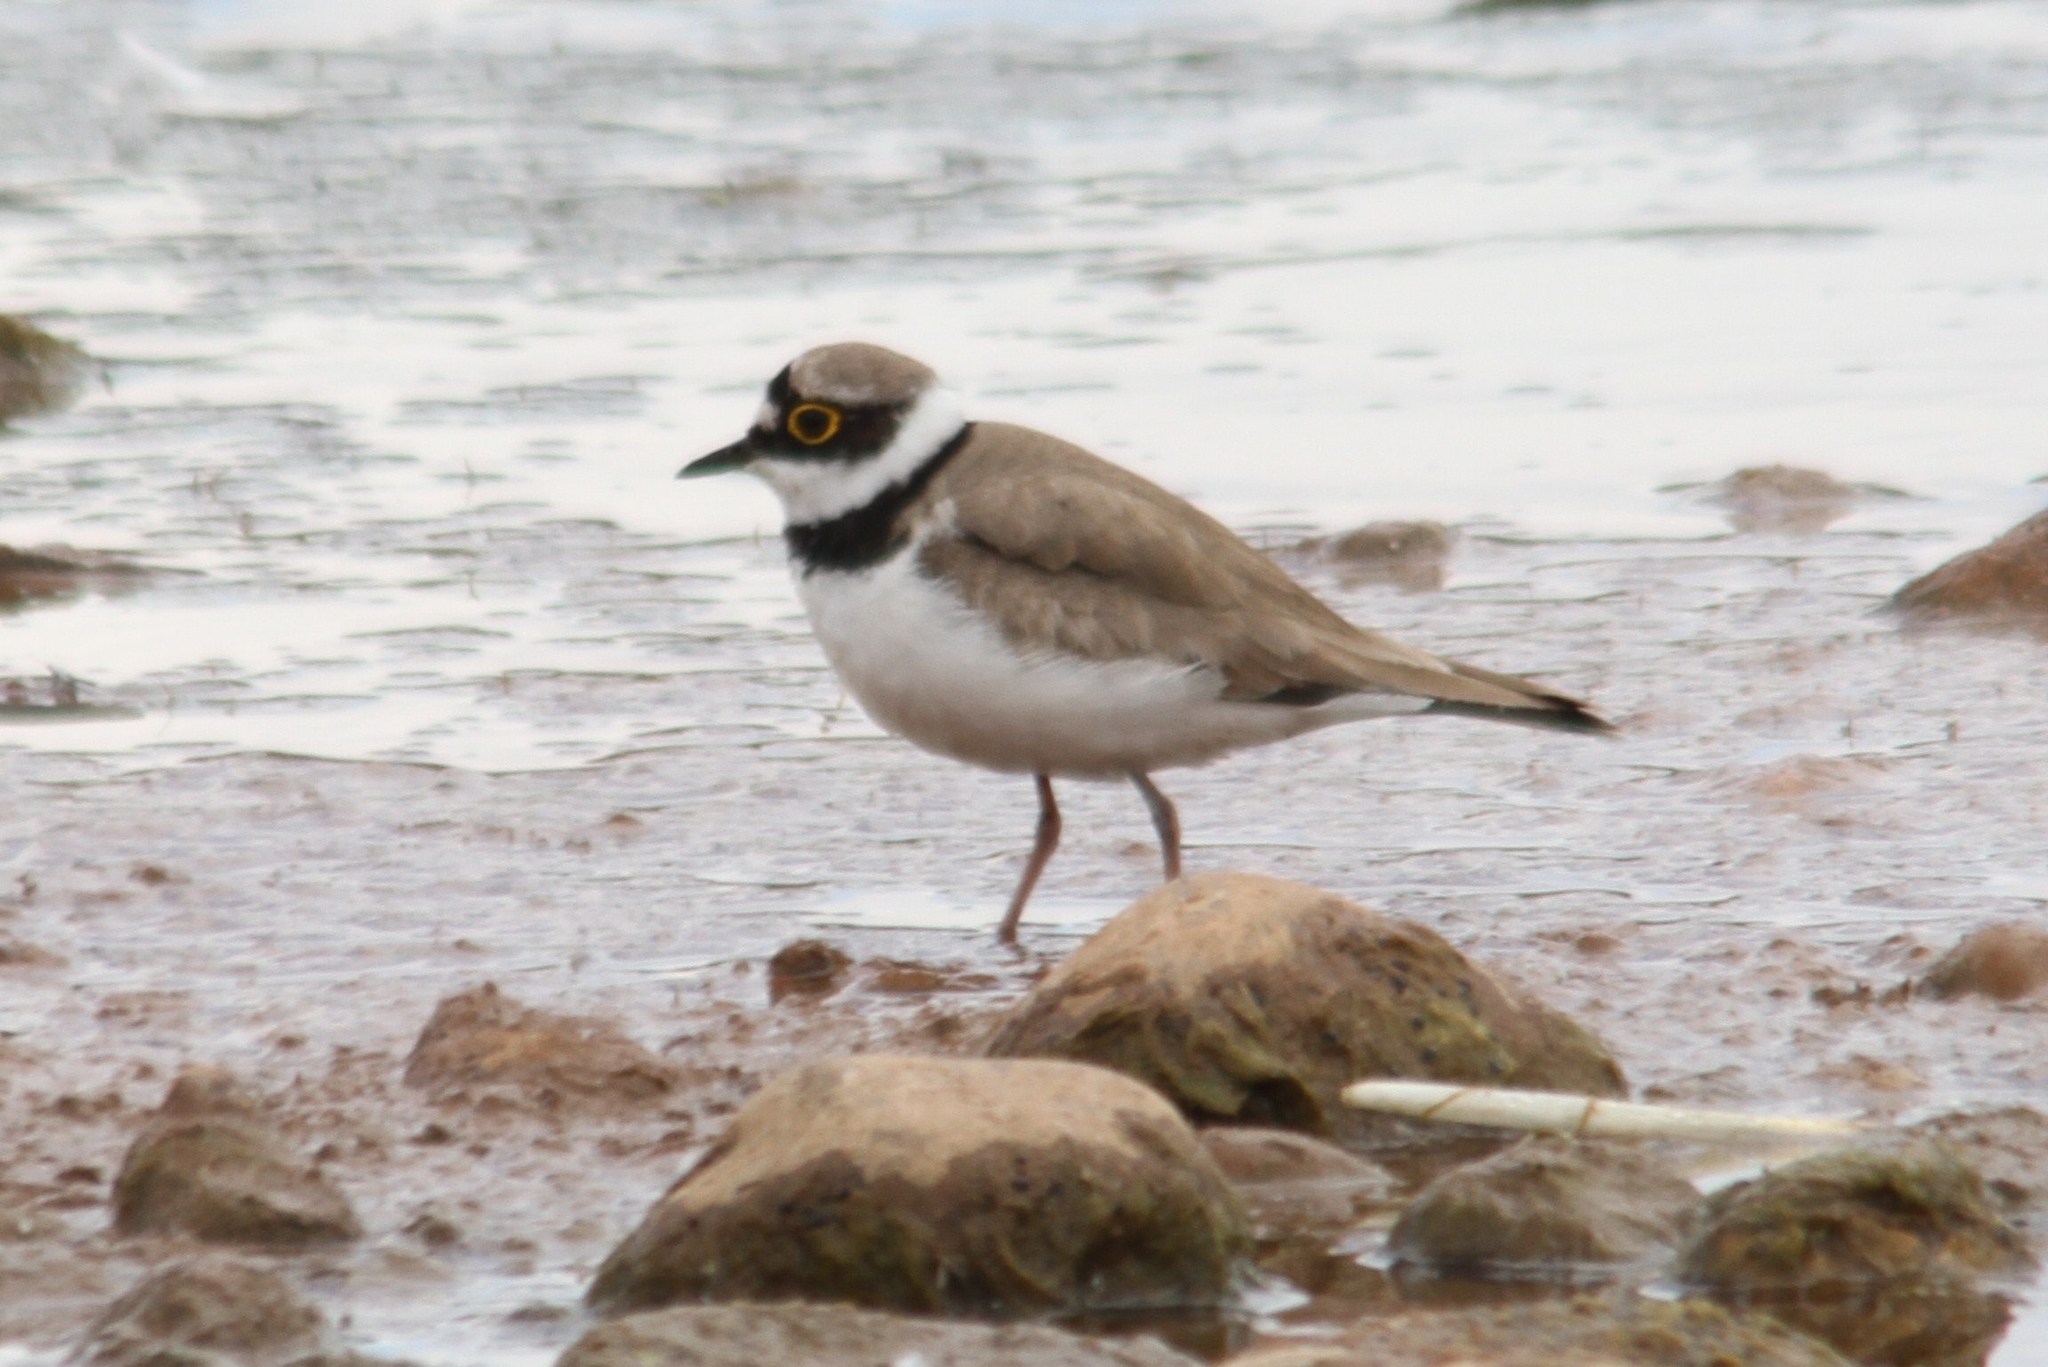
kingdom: Animalia
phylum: Chordata
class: Aves
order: Charadriiformes
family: Charadriidae
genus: Charadrius
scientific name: Charadrius dubius
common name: Little ringed plover
